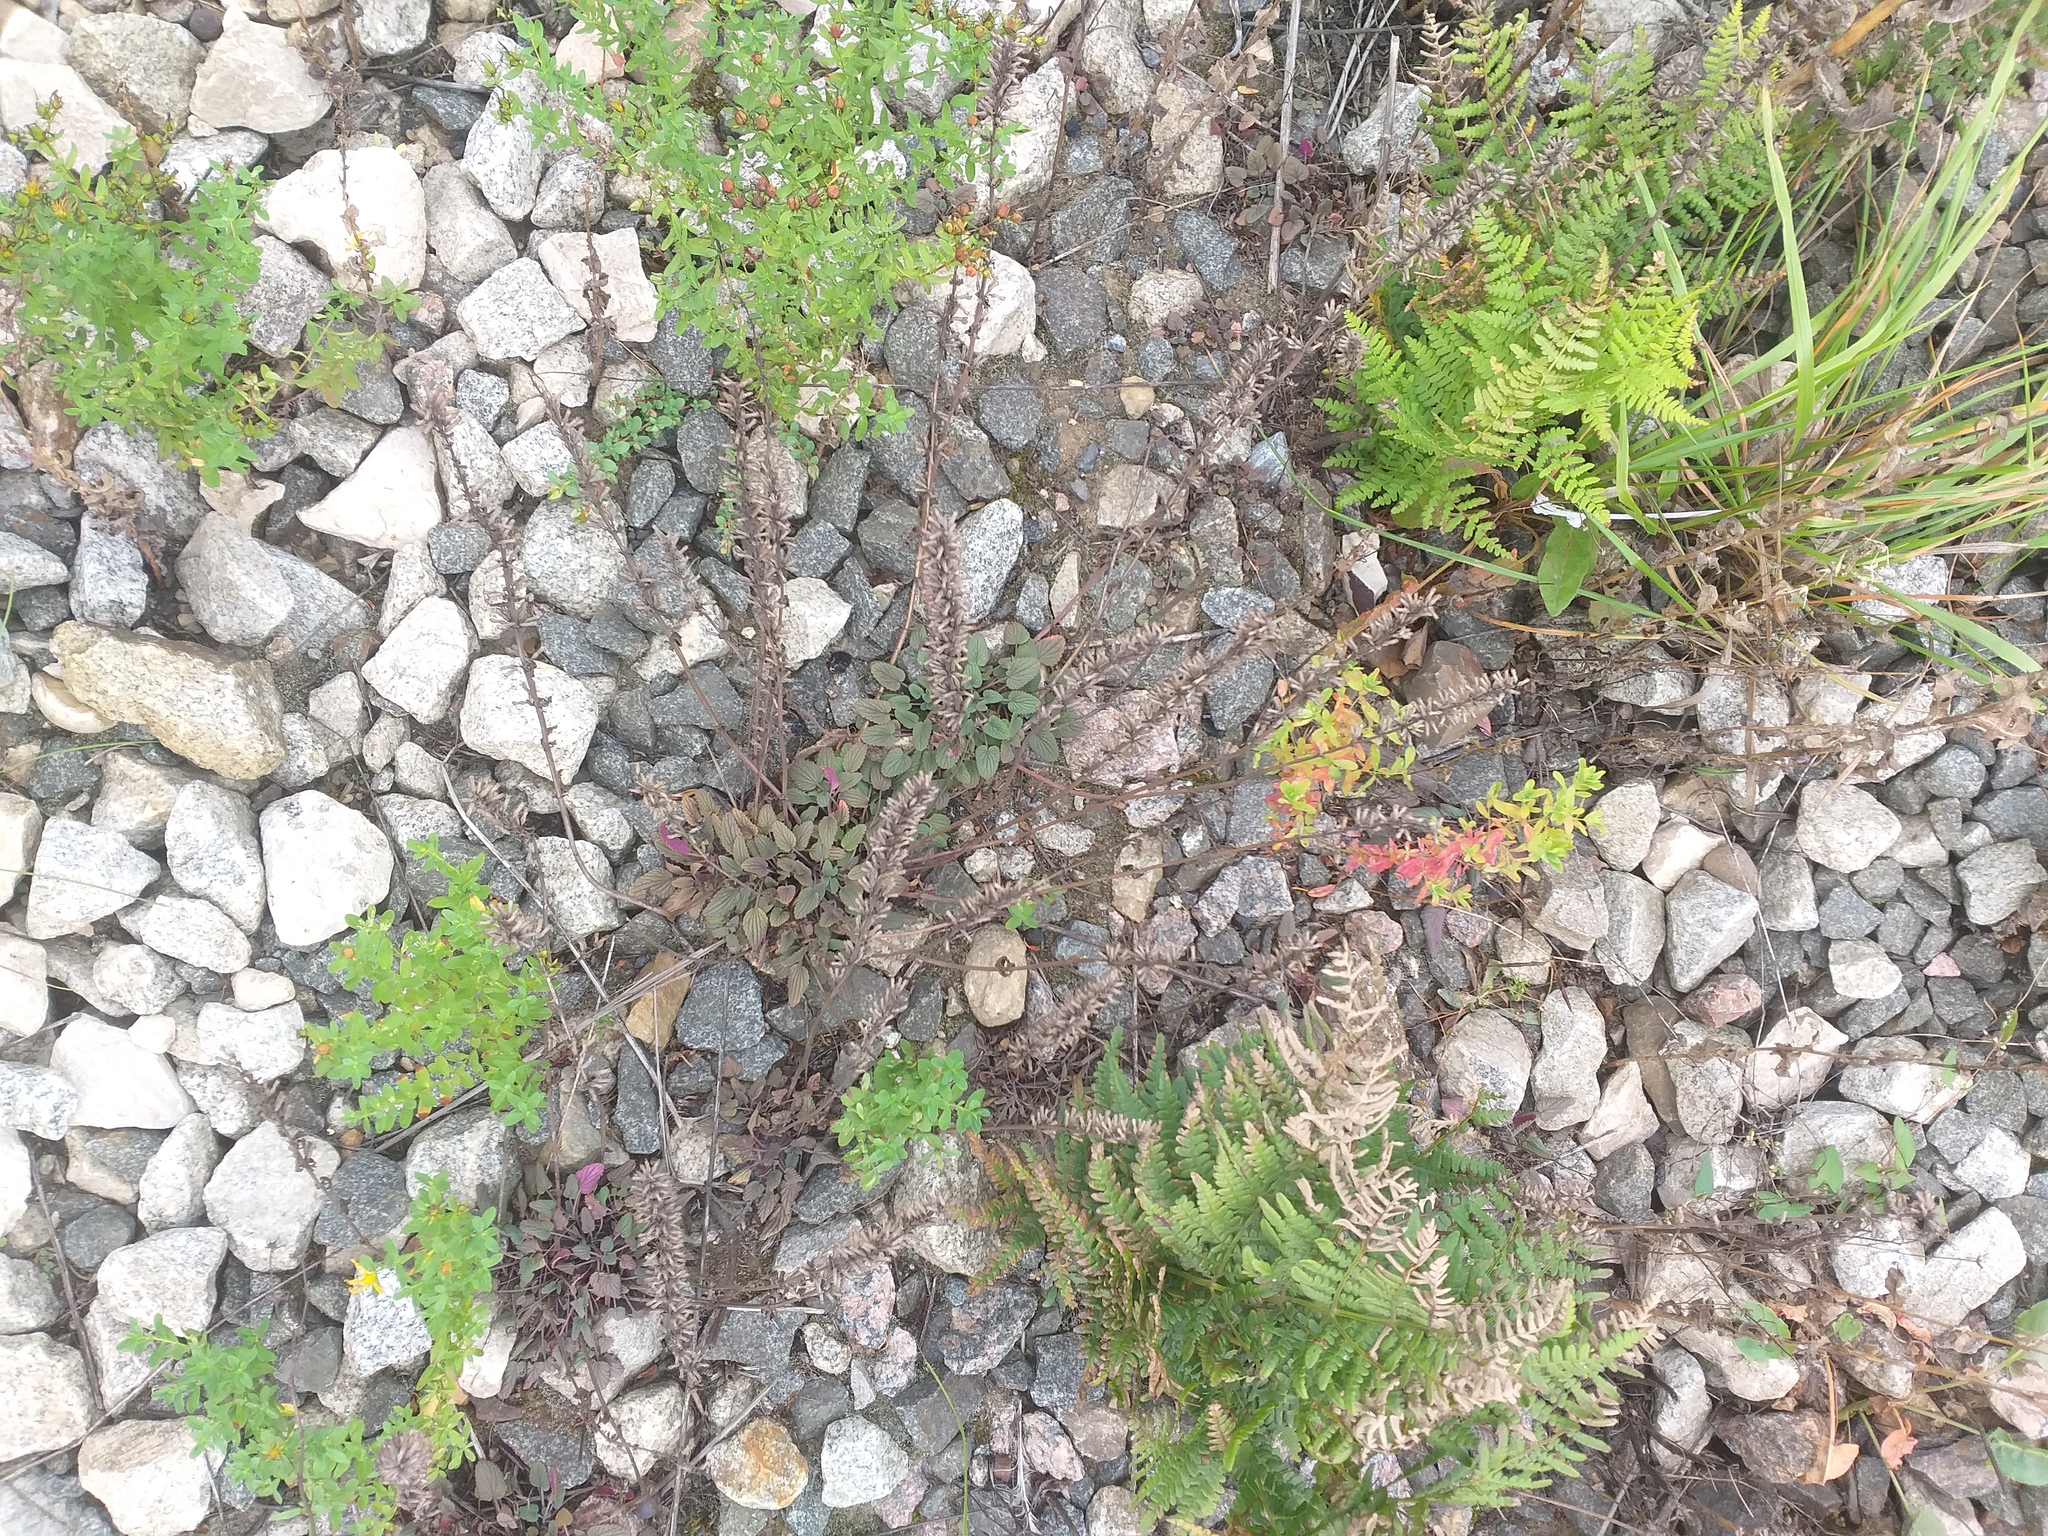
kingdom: Plantae
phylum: Tracheophyta
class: Magnoliopsida
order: Lamiales
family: Lamiaceae
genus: Dracocephalum
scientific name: Dracocephalum thymiflorum
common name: Thymeleaf dragonhead
